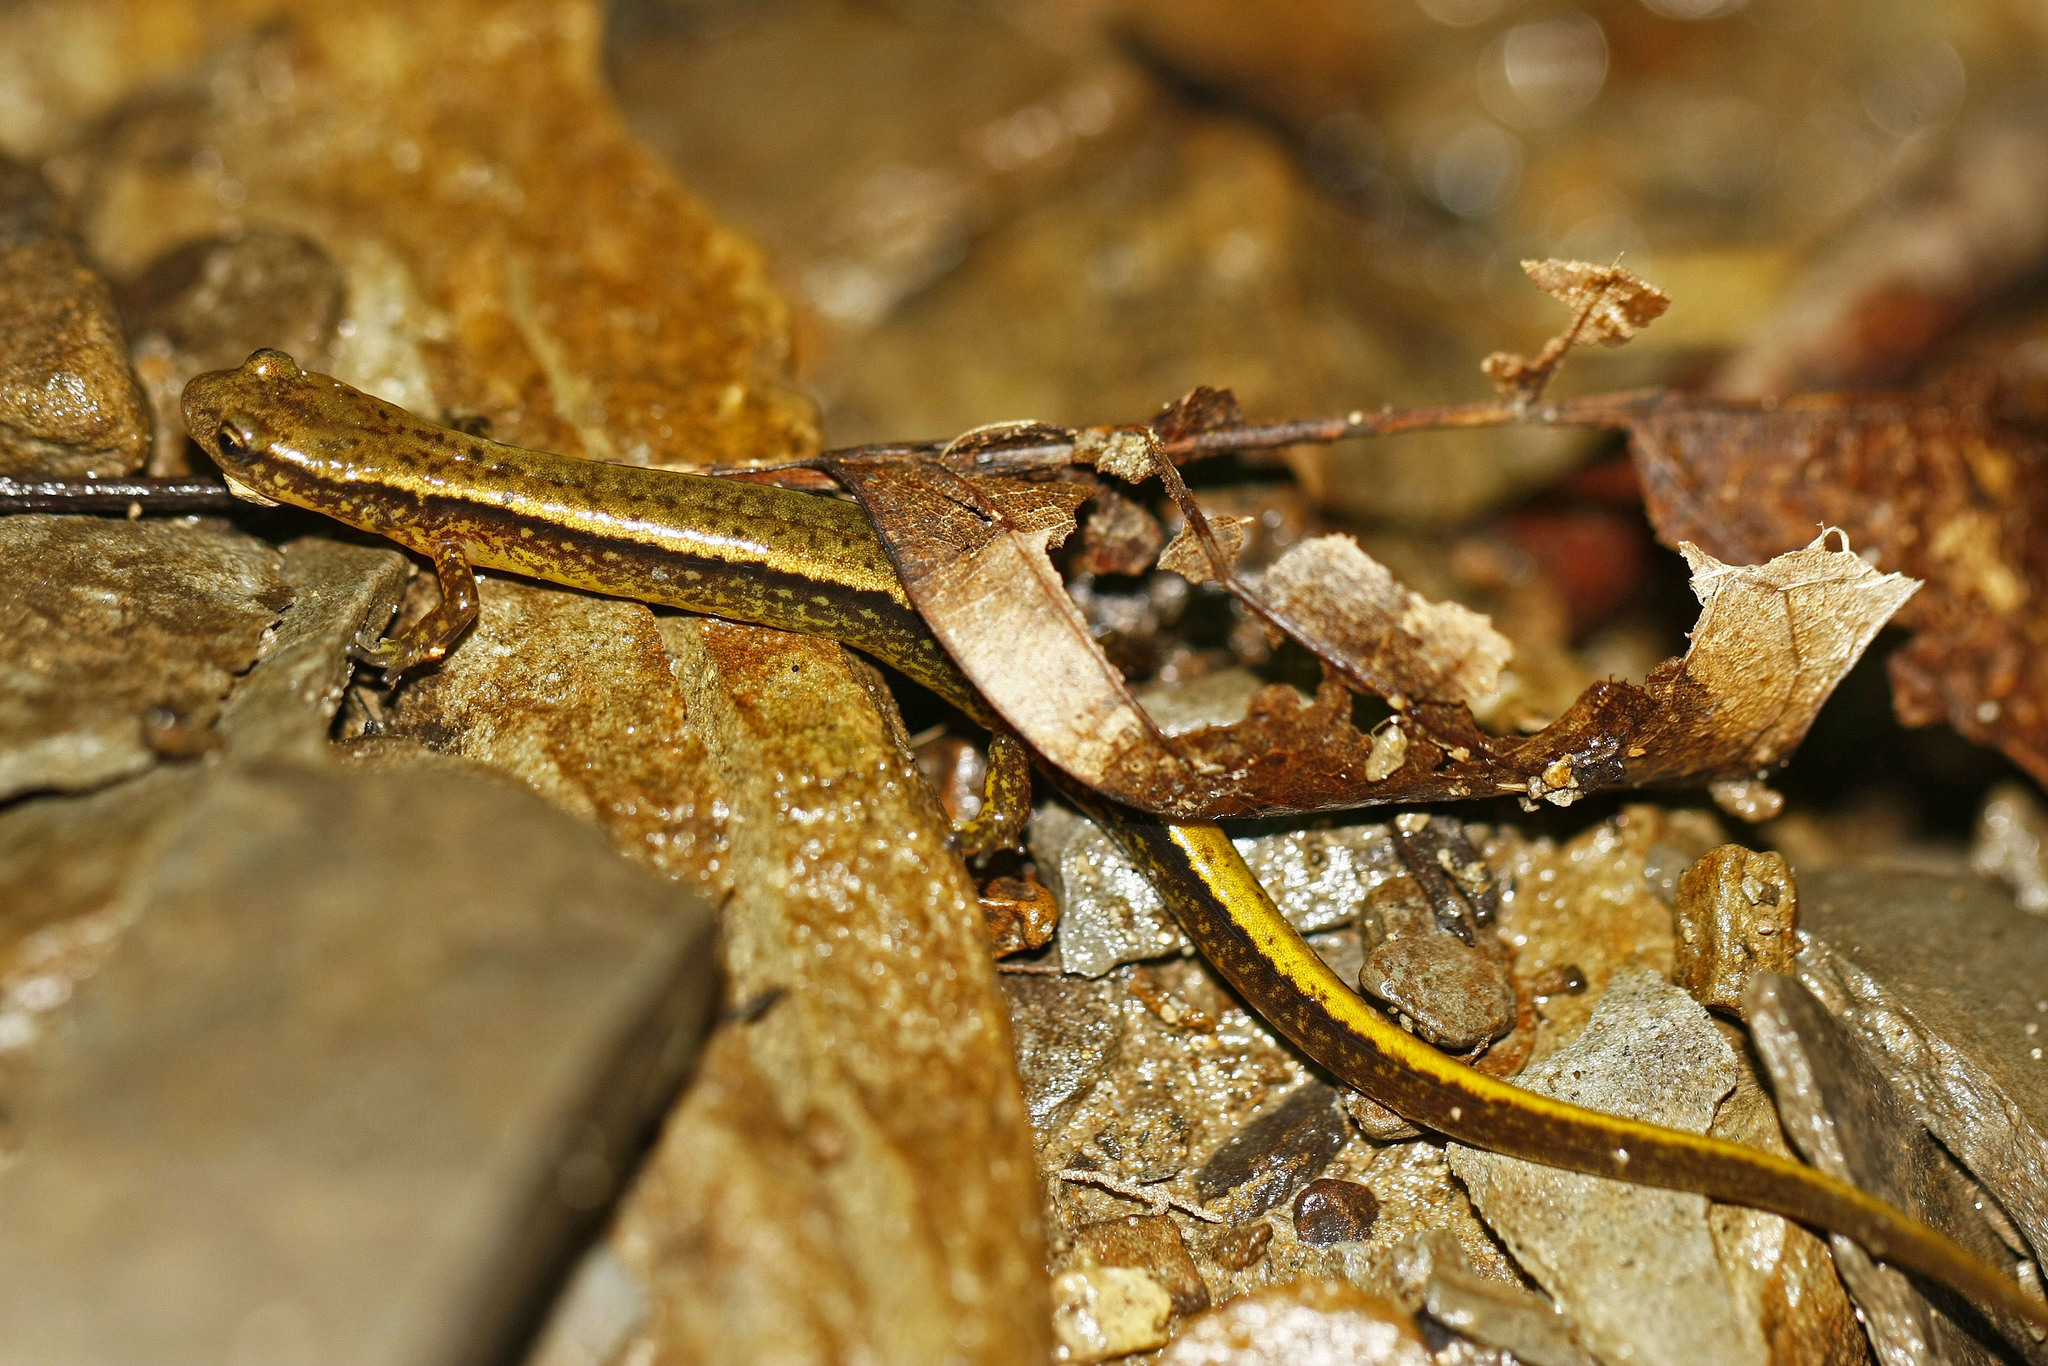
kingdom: Animalia
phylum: Chordata
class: Amphibia
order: Caudata
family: Plethodontidae
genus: Eurycea
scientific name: Eurycea bislineata
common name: Northern two-lined salamander
